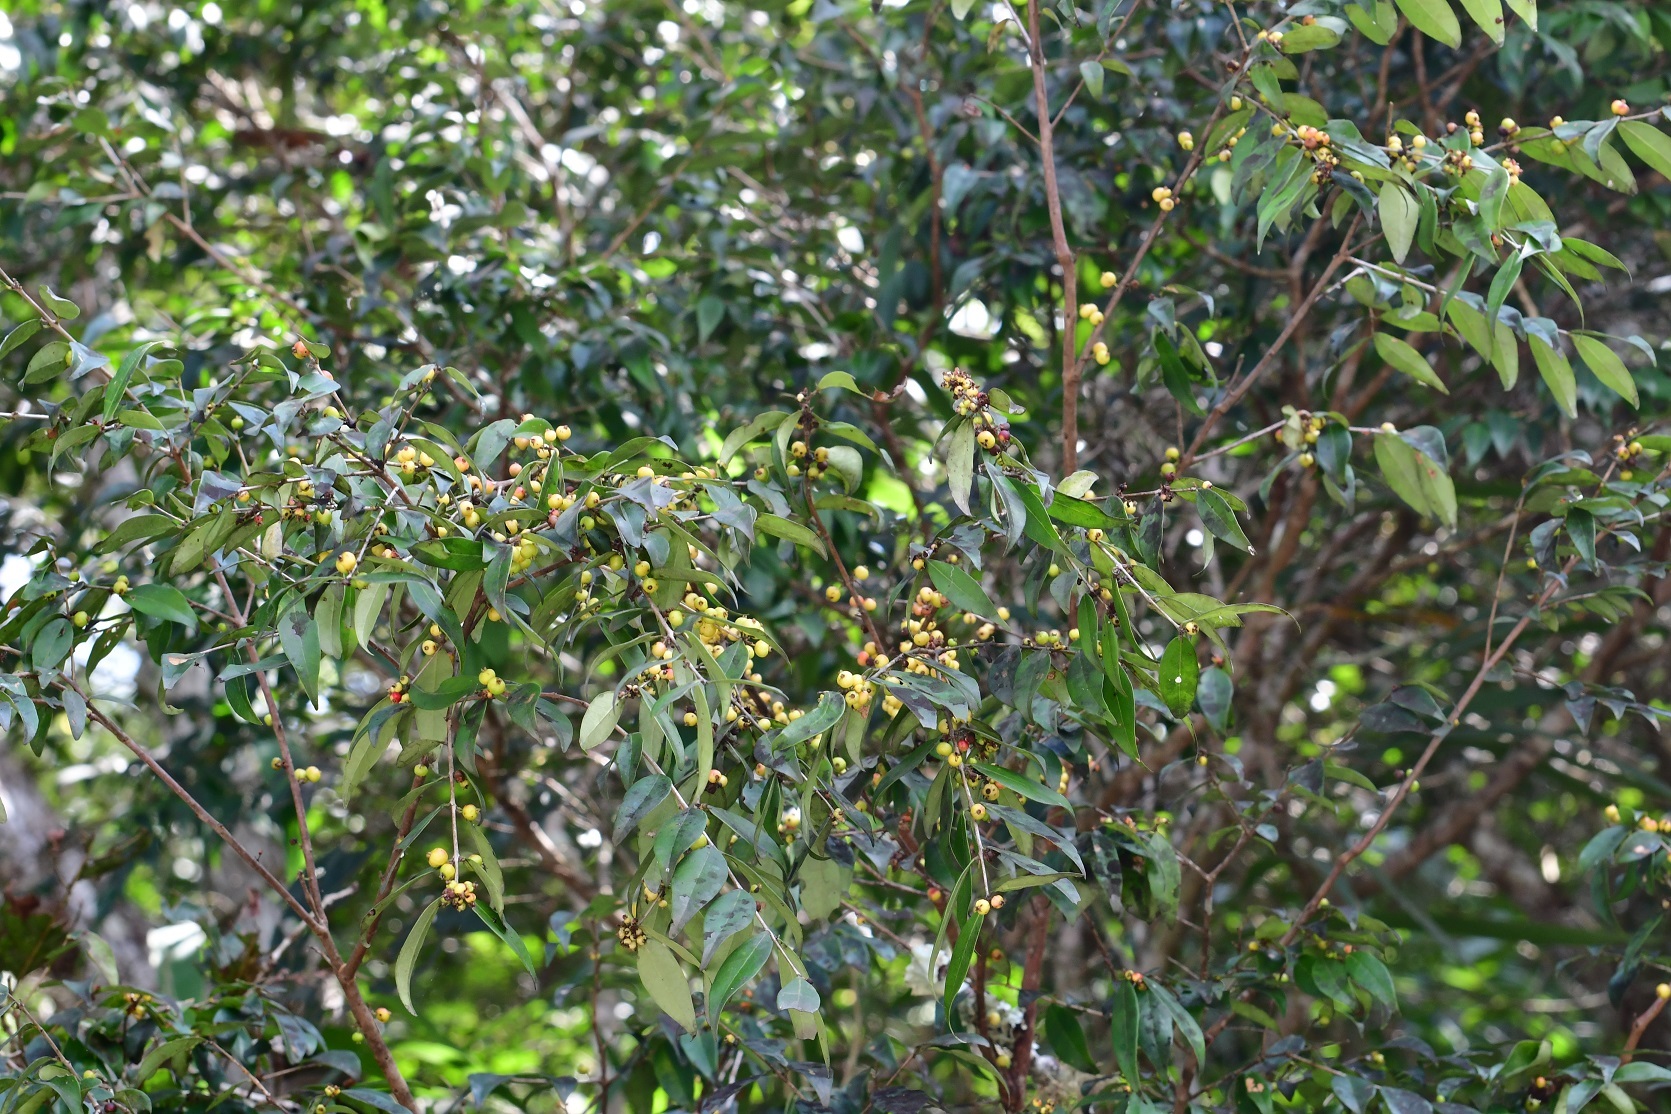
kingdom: Plantae
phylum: Tracheophyta
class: Magnoliopsida
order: Myrtales
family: Myrtaceae
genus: Eugenia
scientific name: Eugenia capuli
